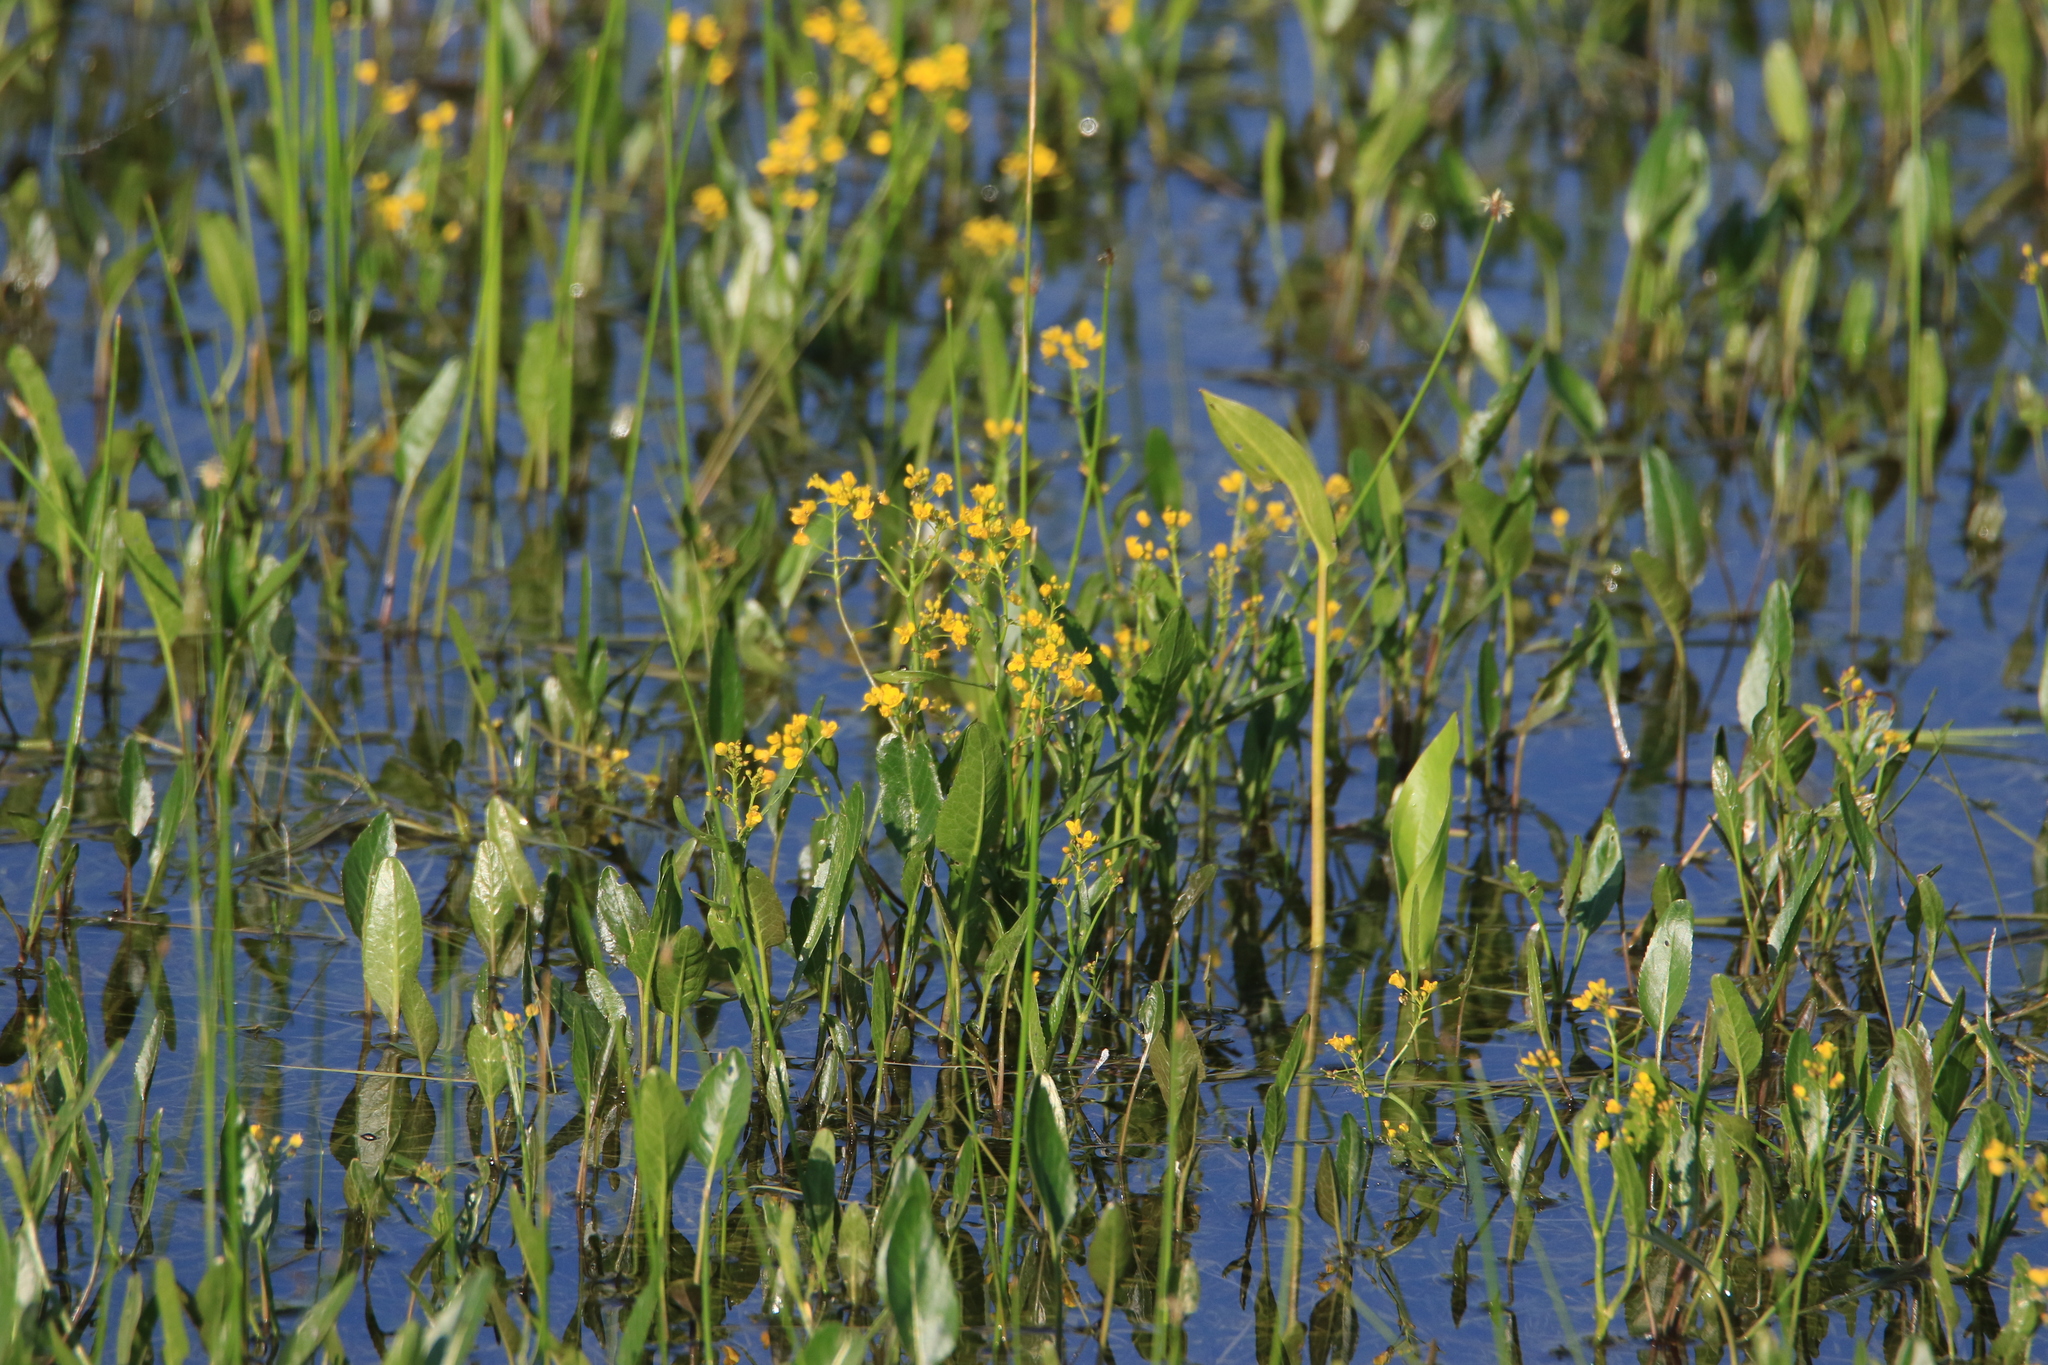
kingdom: Plantae
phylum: Tracheophyta
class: Magnoliopsida
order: Brassicales
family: Brassicaceae
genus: Rorippa
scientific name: Rorippa amphibia
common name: Great yellow-cress
